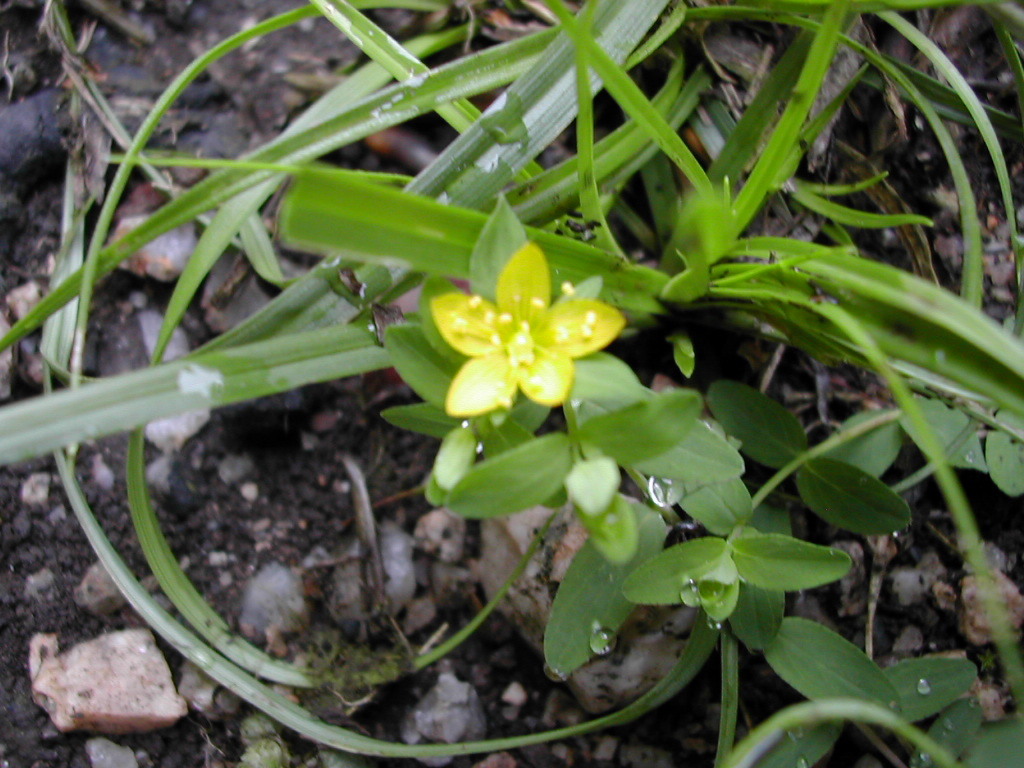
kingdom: Plantae
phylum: Tracheophyta
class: Magnoliopsida
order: Malpighiales
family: Hypericaceae
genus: Hypericum
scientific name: Hypericum humifusum
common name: Trailing st. john's-wort
